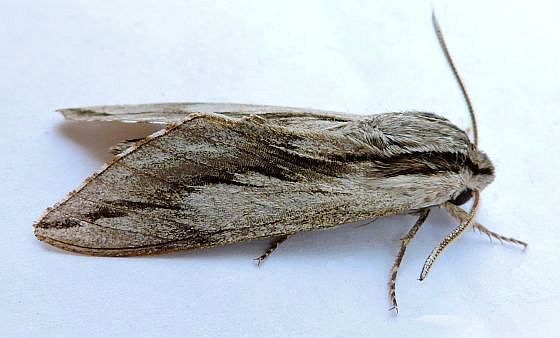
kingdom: Animalia
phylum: Arthropoda
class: Insecta
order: Lepidoptera
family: Sphingidae
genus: Sphinx
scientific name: Sphinx dollii
